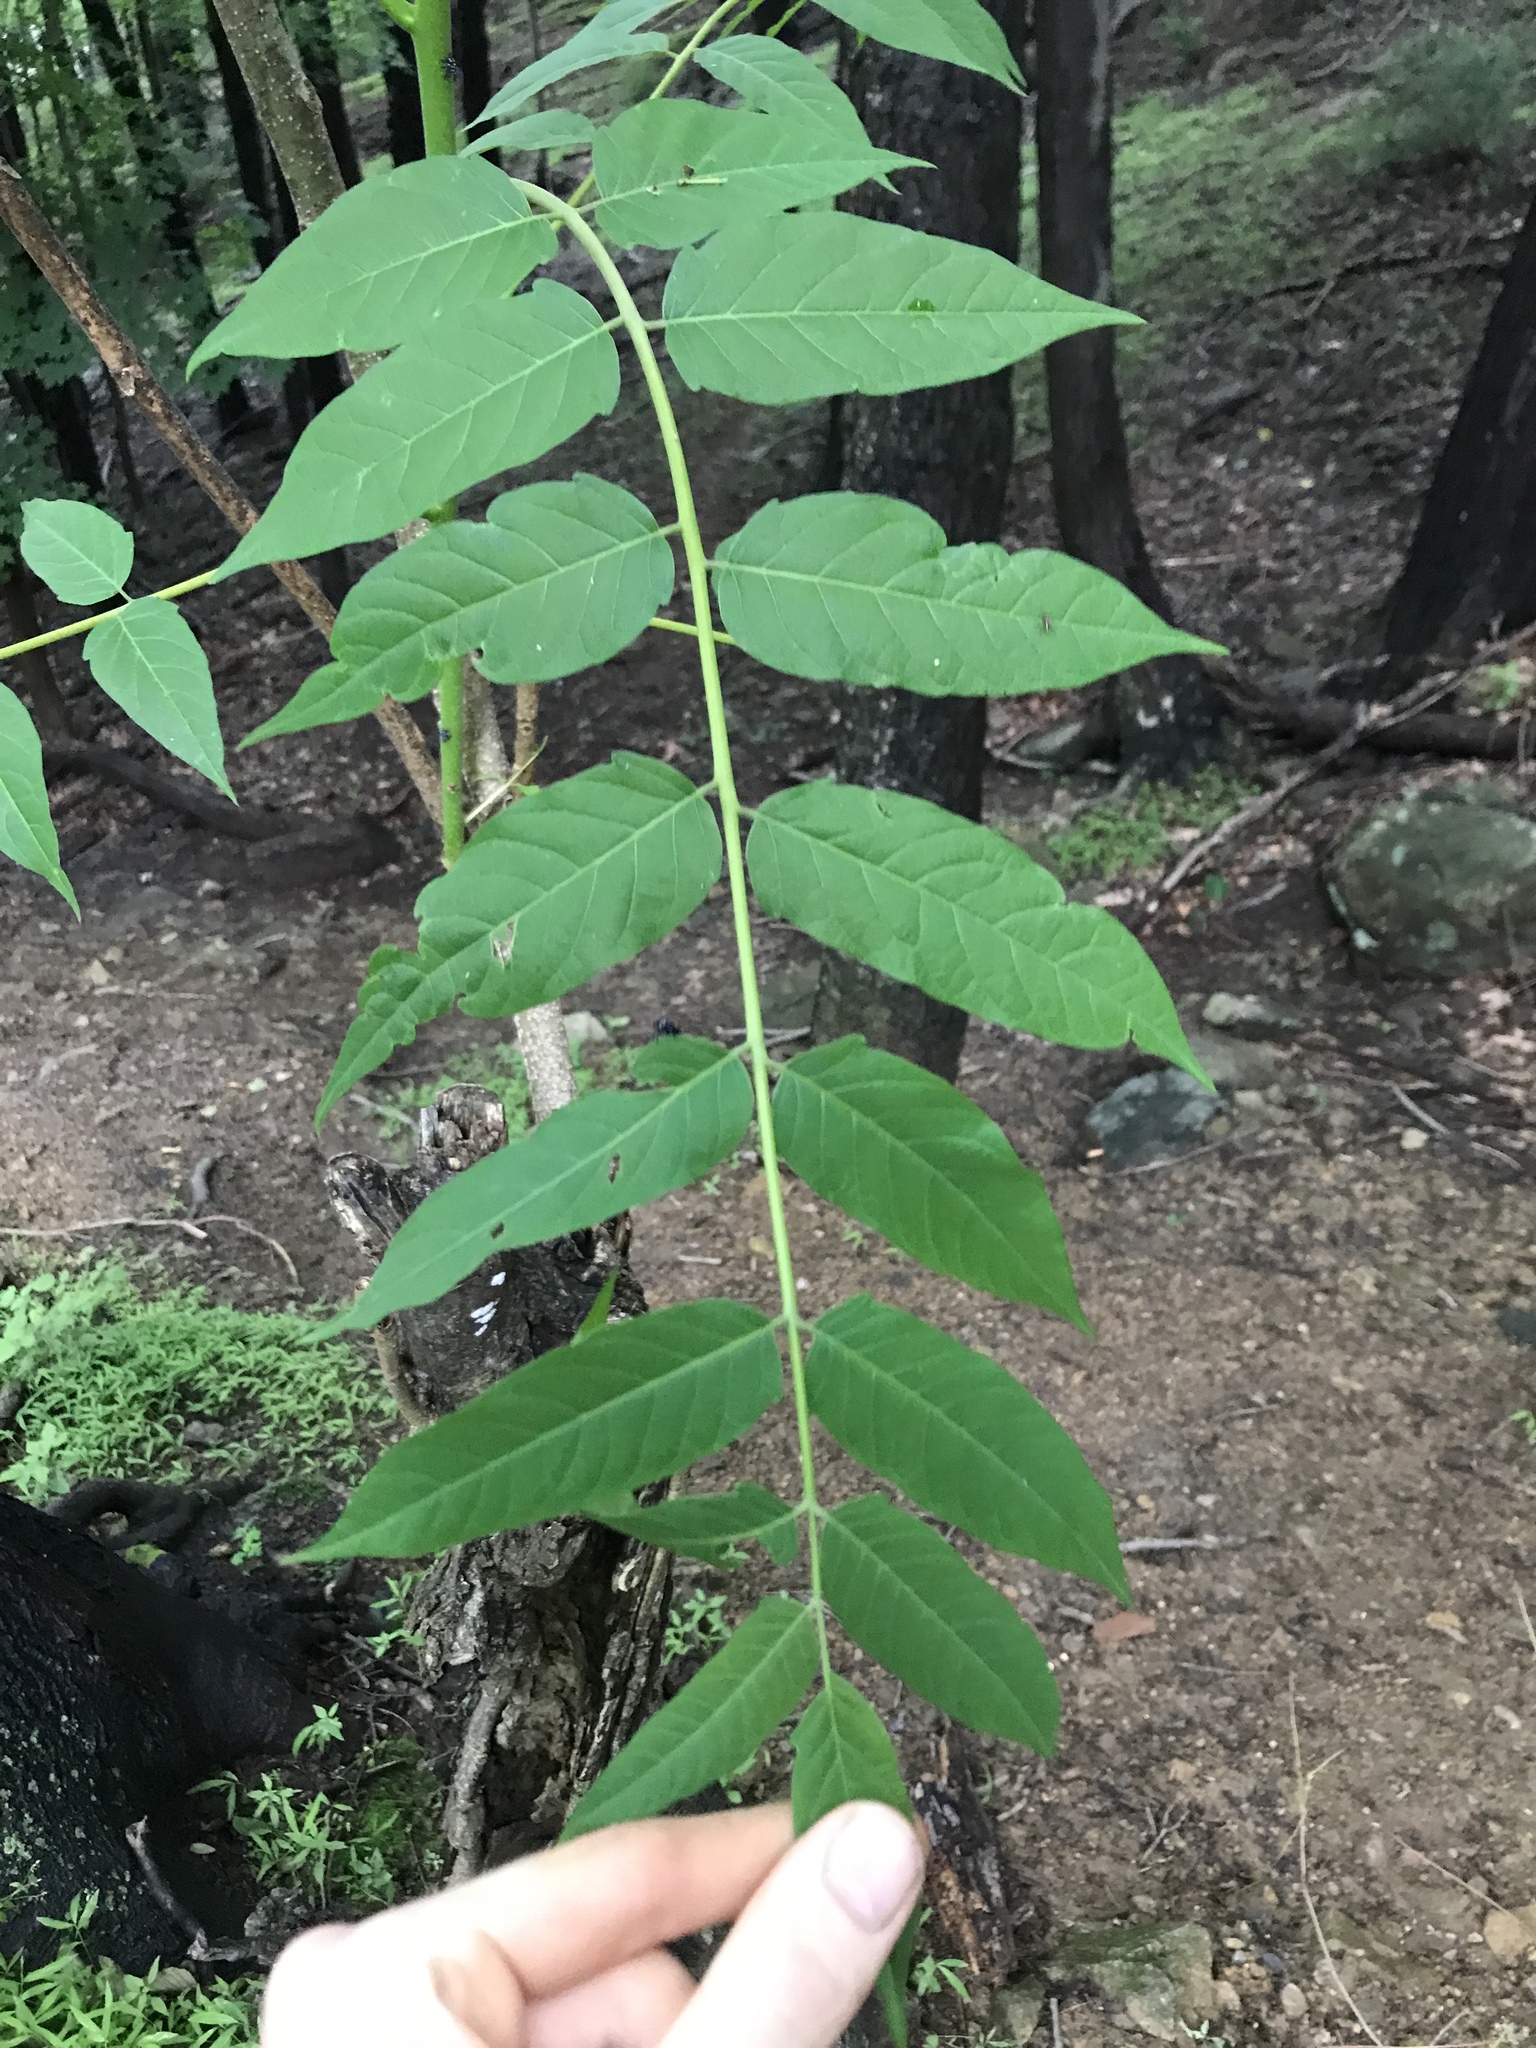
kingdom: Plantae
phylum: Tracheophyta
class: Magnoliopsida
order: Sapindales
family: Simaroubaceae
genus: Ailanthus
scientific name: Ailanthus altissima
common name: Tree-of-heaven
